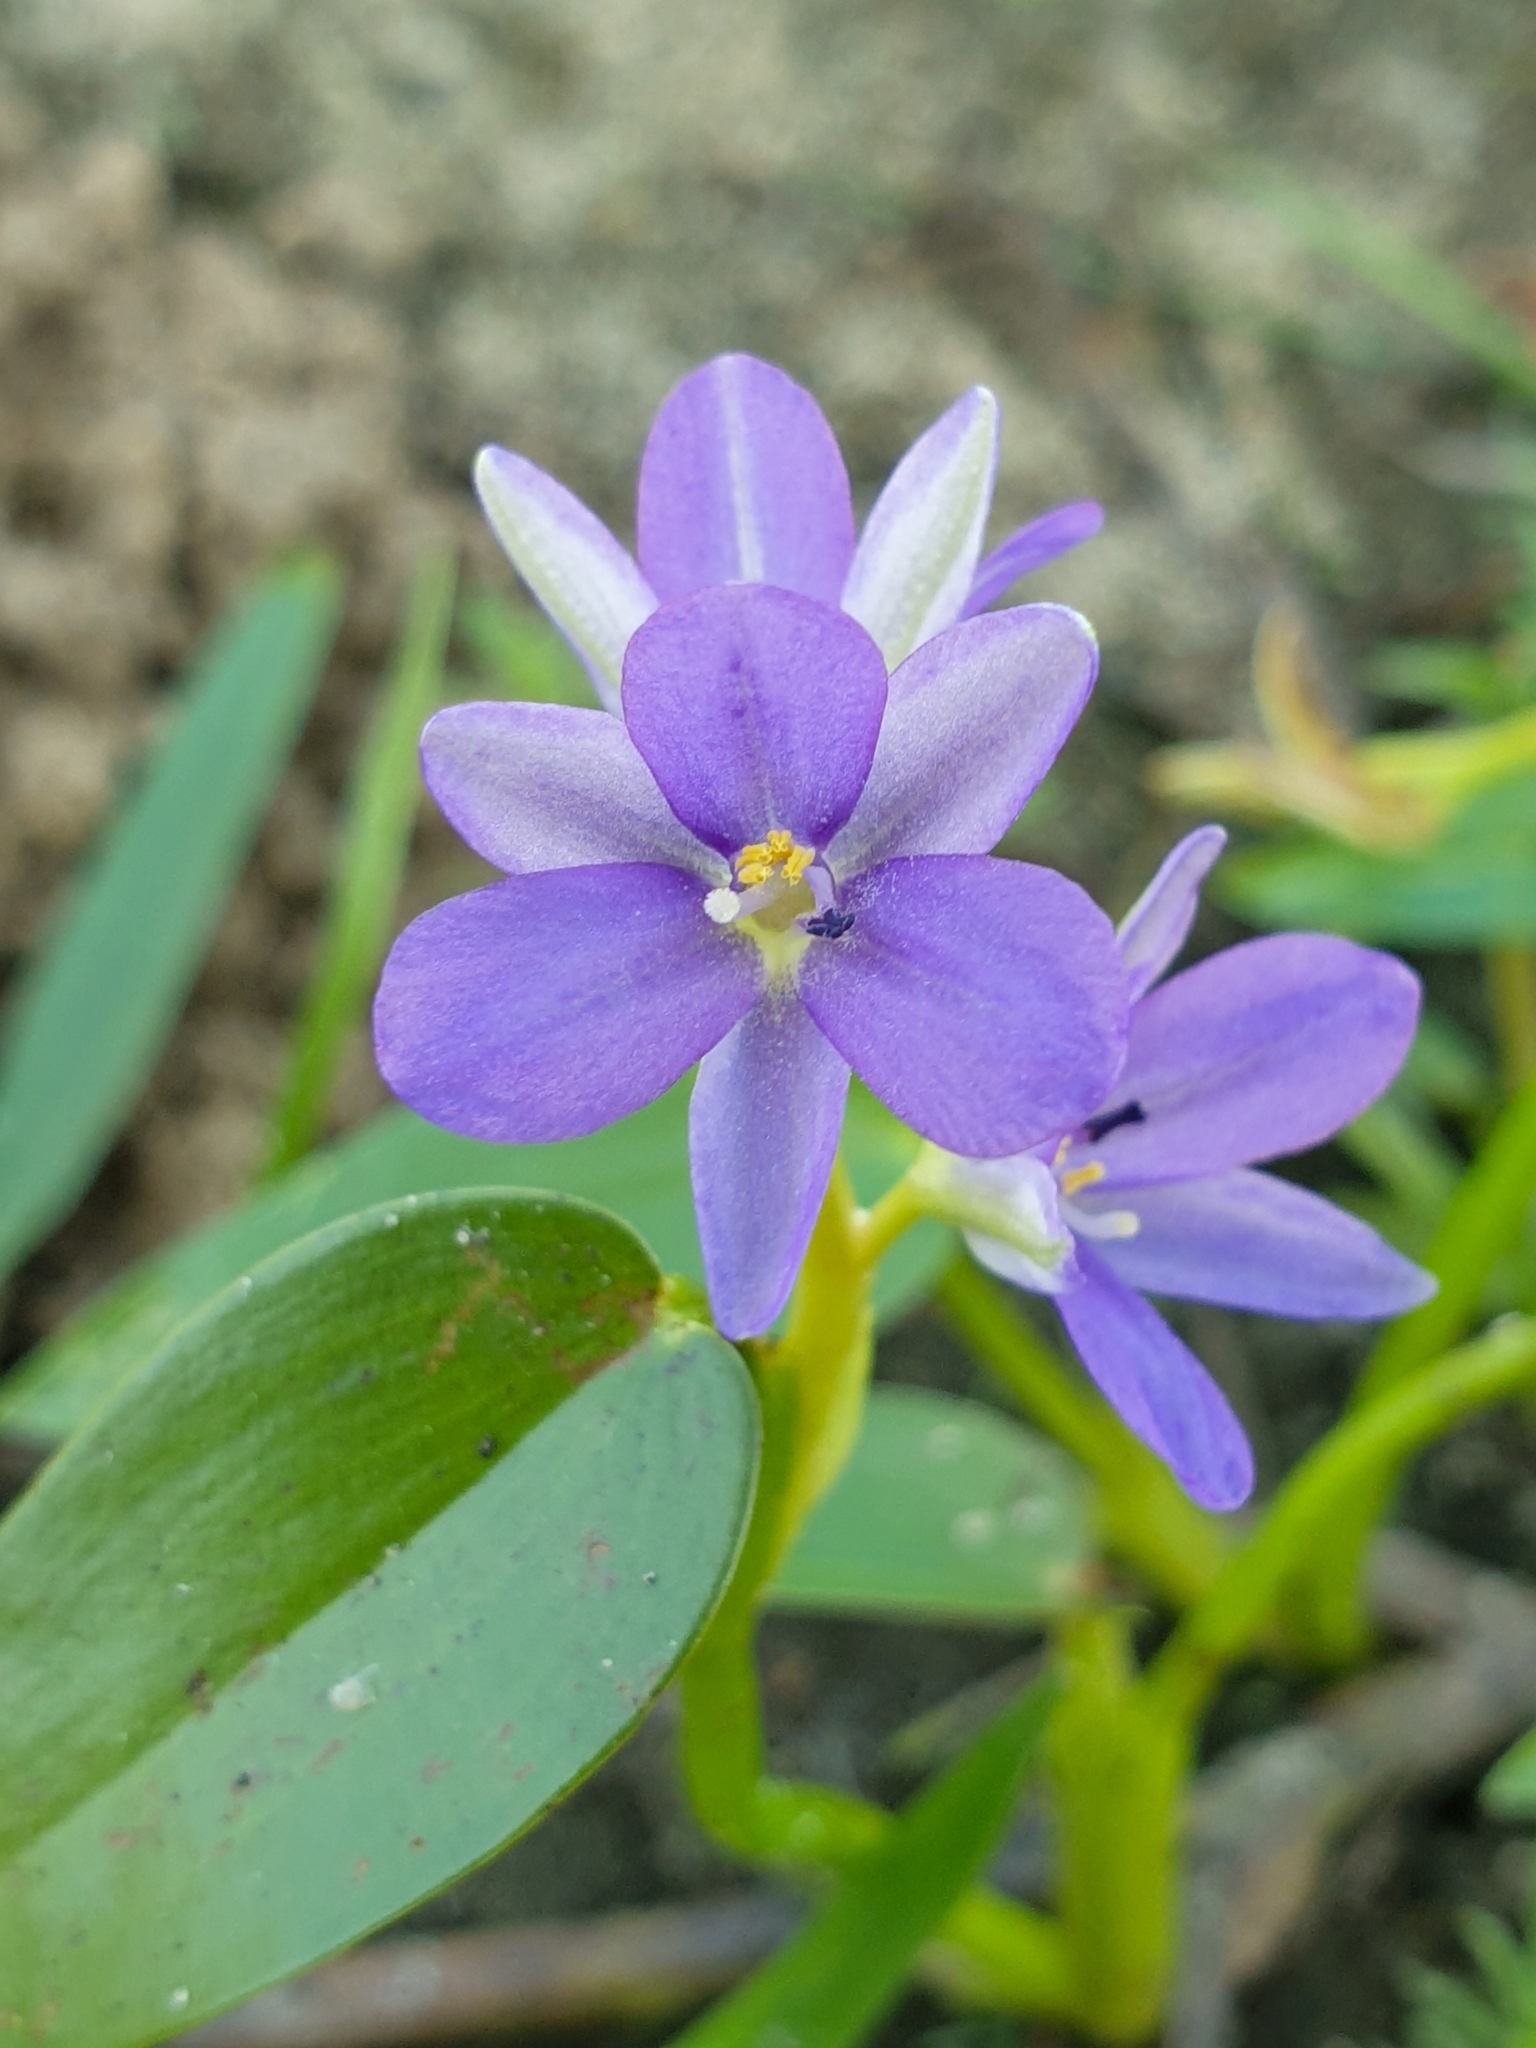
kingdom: Plantae
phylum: Tracheophyta
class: Liliopsida
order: Commelinales
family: Pontederiaceae
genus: Pontederia
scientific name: Pontederia vaginalis
